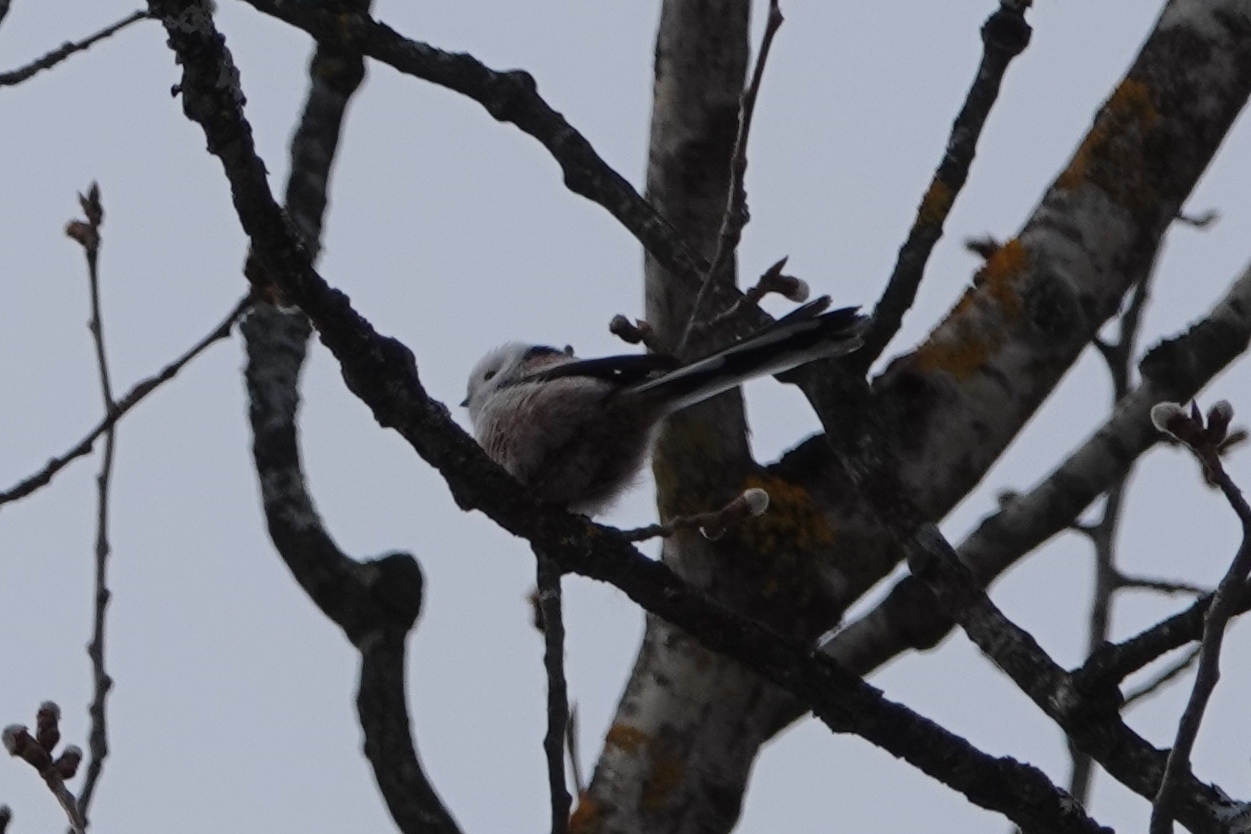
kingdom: Animalia
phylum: Chordata
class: Aves
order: Passeriformes
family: Aegithalidae
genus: Aegithalos
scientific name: Aegithalos caudatus
